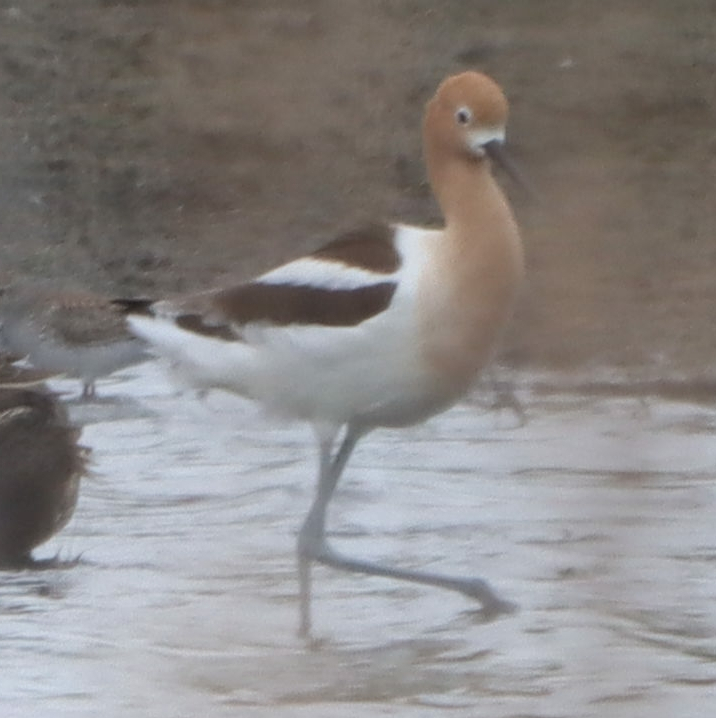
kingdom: Animalia
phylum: Chordata
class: Aves
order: Charadriiformes
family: Recurvirostridae
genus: Recurvirostra
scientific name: Recurvirostra americana
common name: American avocet
